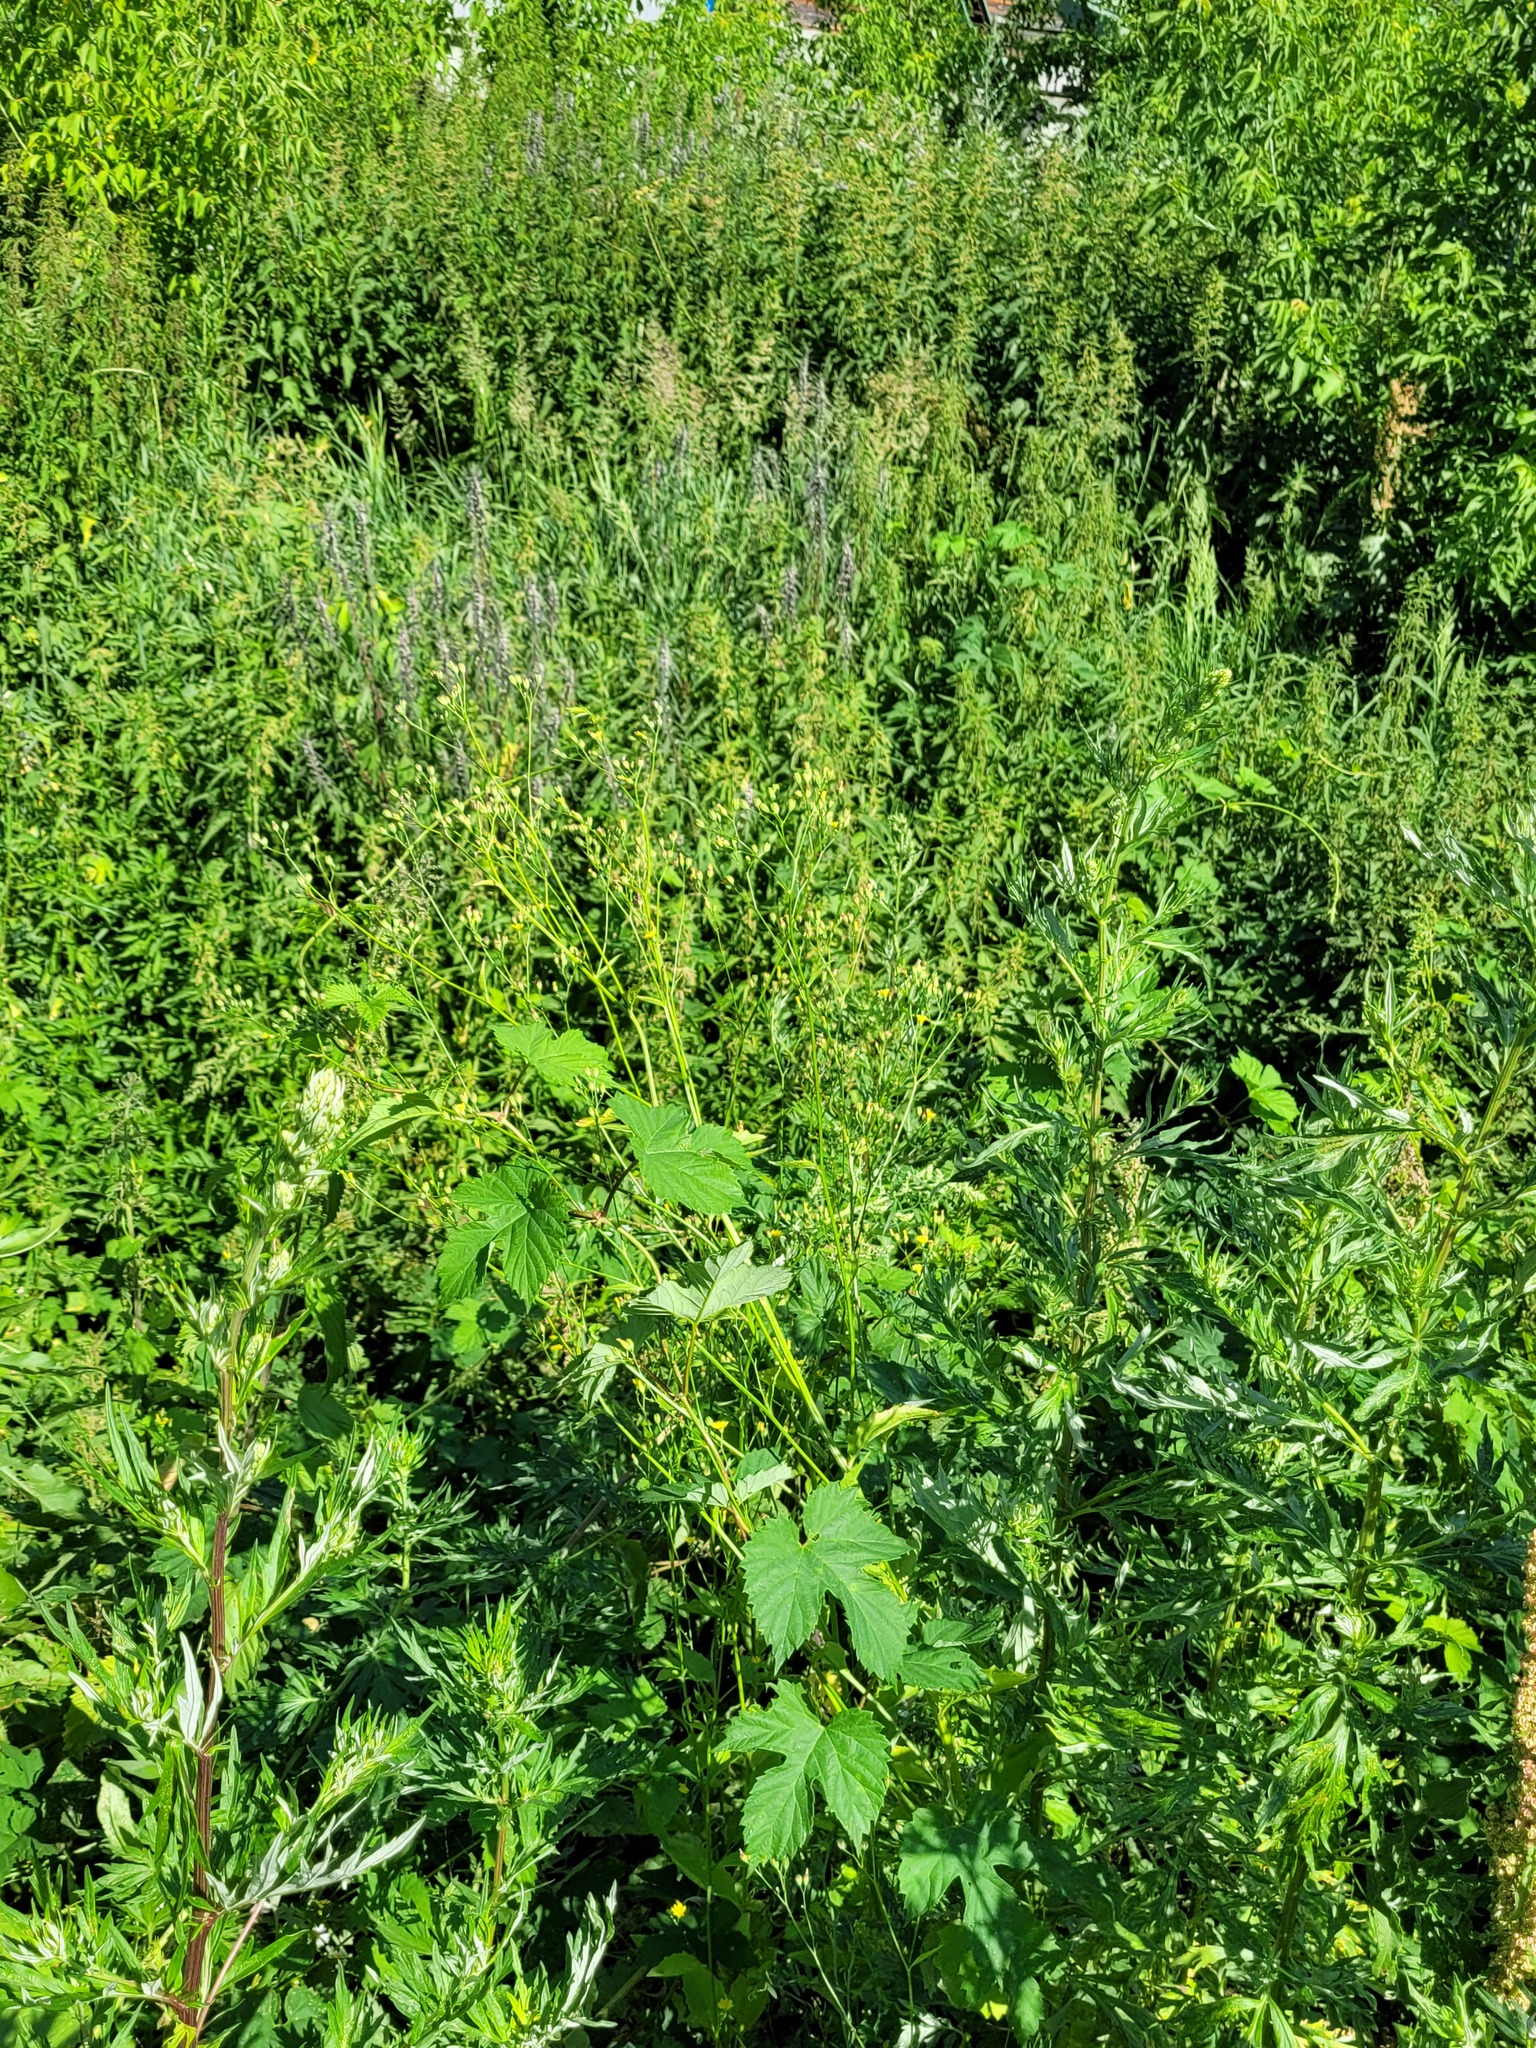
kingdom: Plantae
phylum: Tracheophyta
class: Magnoliopsida
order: Asterales
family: Asteraceae
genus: Lapsana
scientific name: Lapsana communis
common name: Nipplewort
